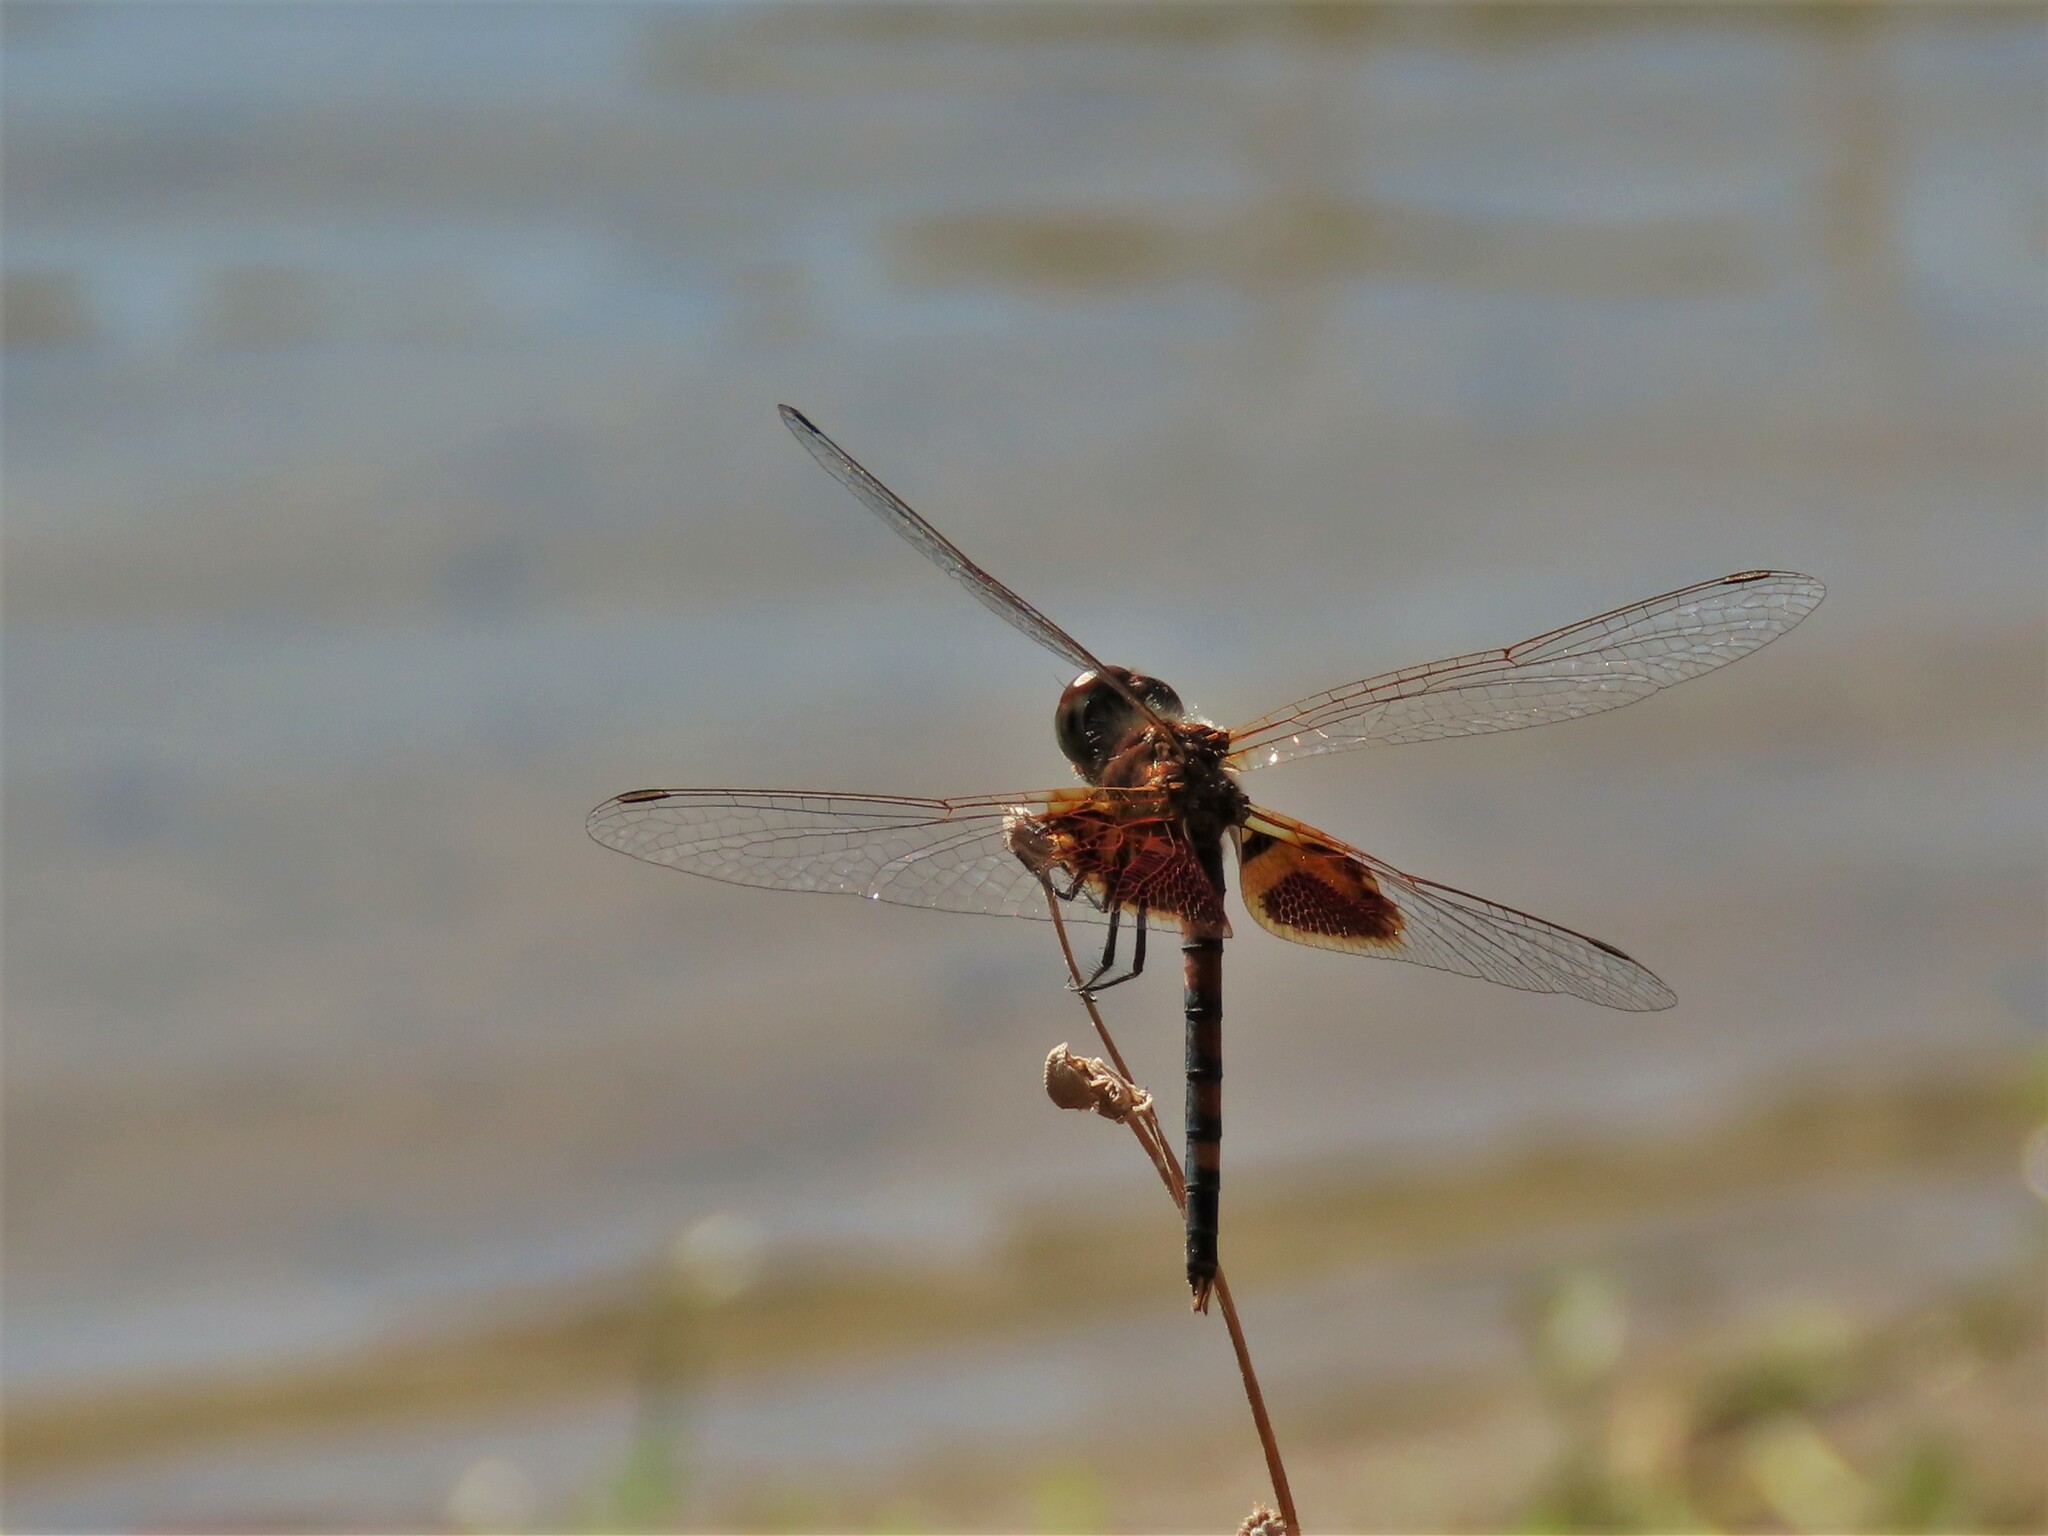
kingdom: Animalia
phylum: Arthropoda
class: Insecta
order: Odonata
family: Libellulidae
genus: Celithemis
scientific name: Celithemis amanda
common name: Amanda's pennant
